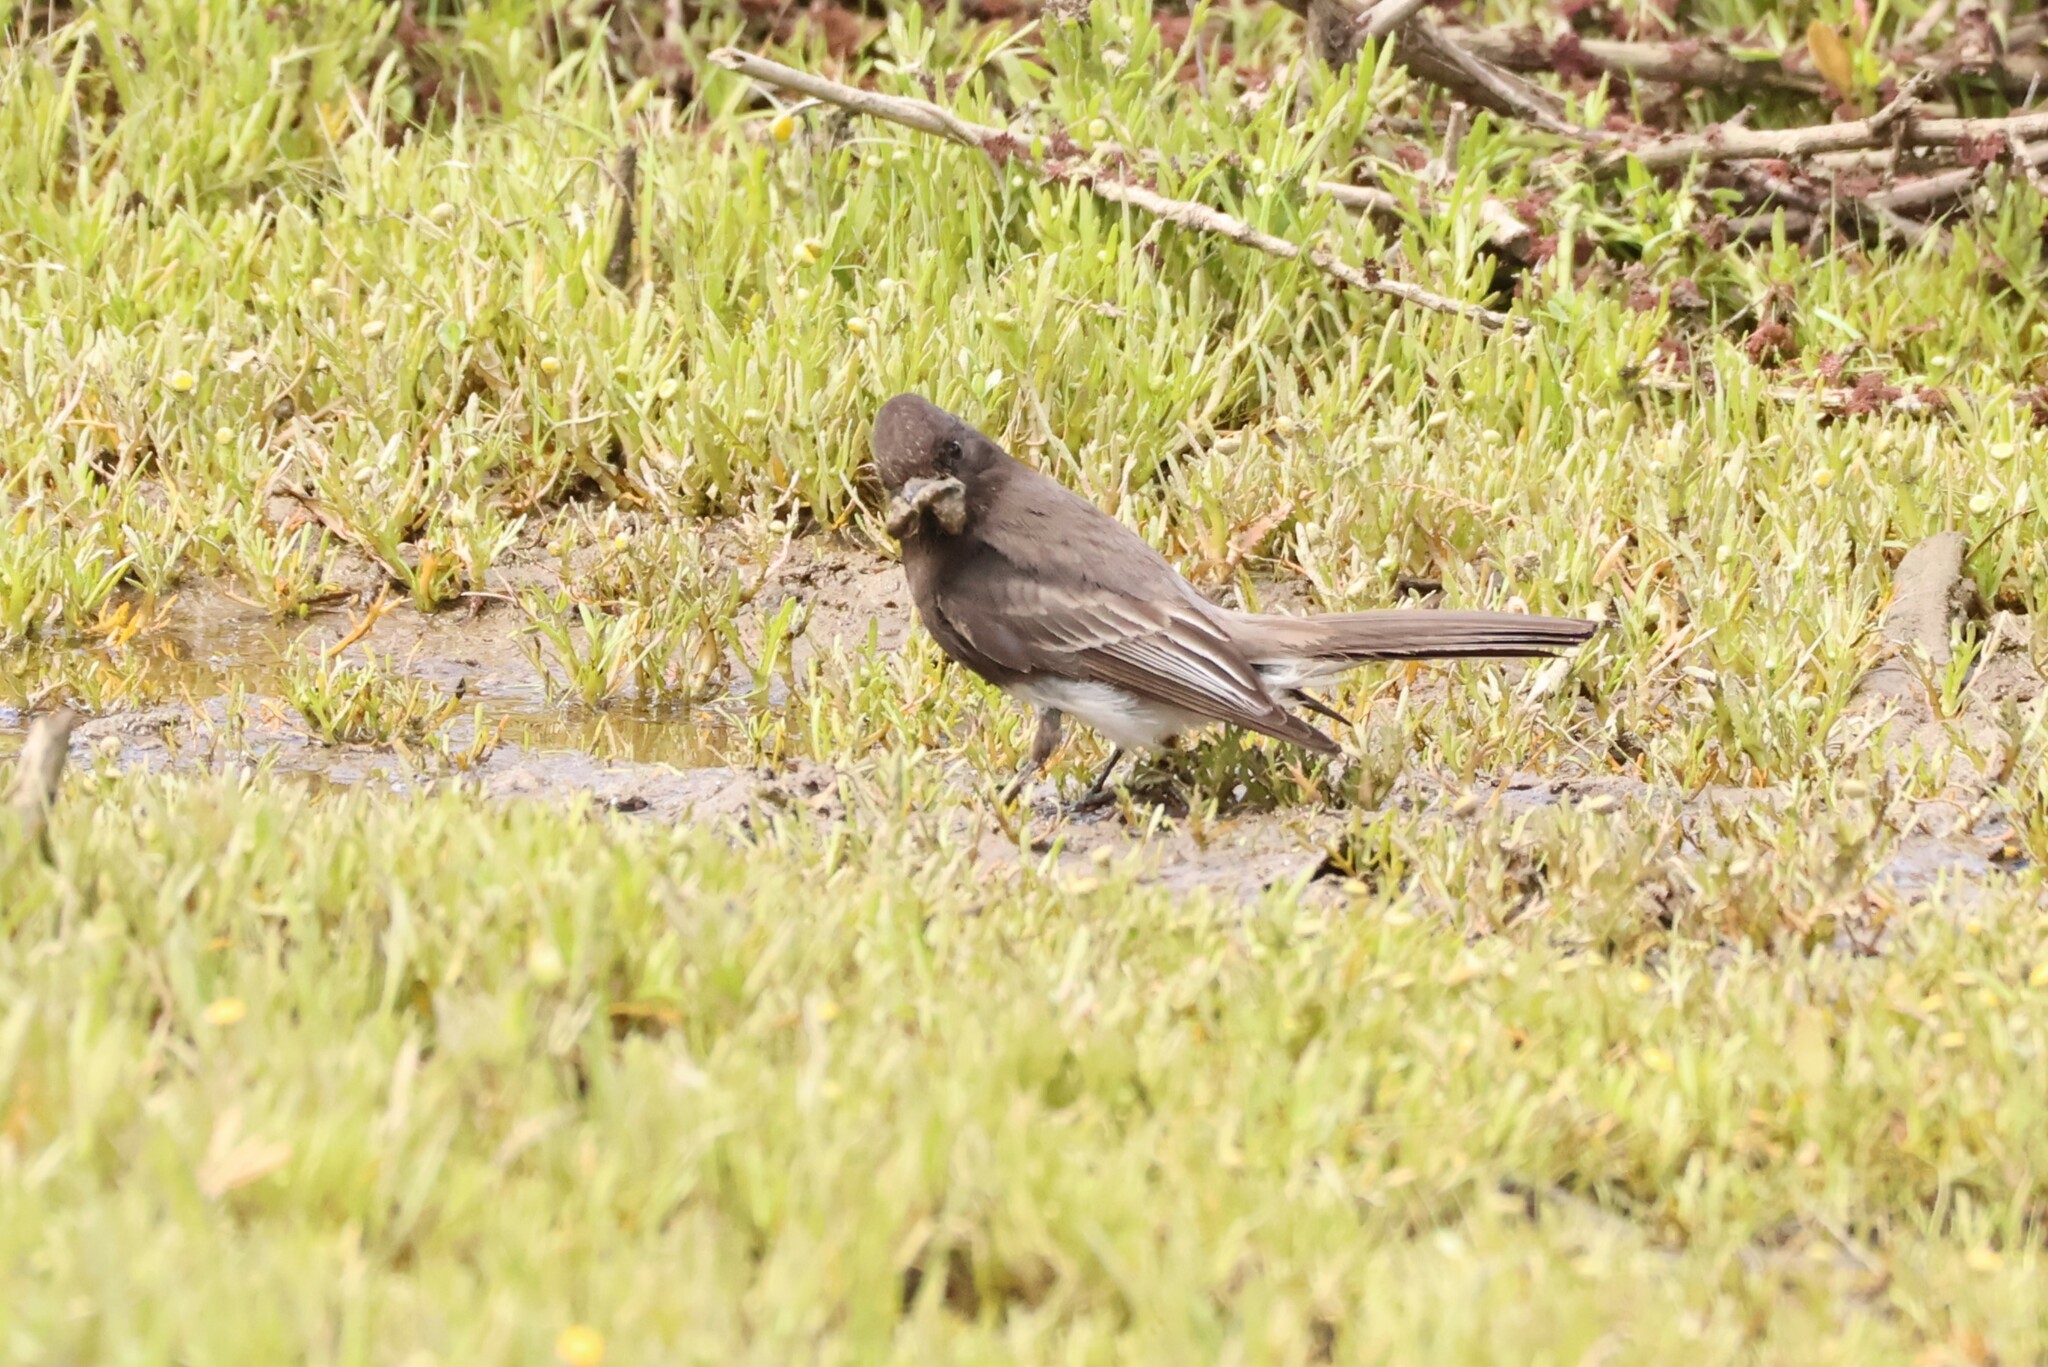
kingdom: Animalia
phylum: Chordata
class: Aves
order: Passeriformes
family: Tyrannidae
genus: Sayornis
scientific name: Sayornis nigricans
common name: Black phoebe
